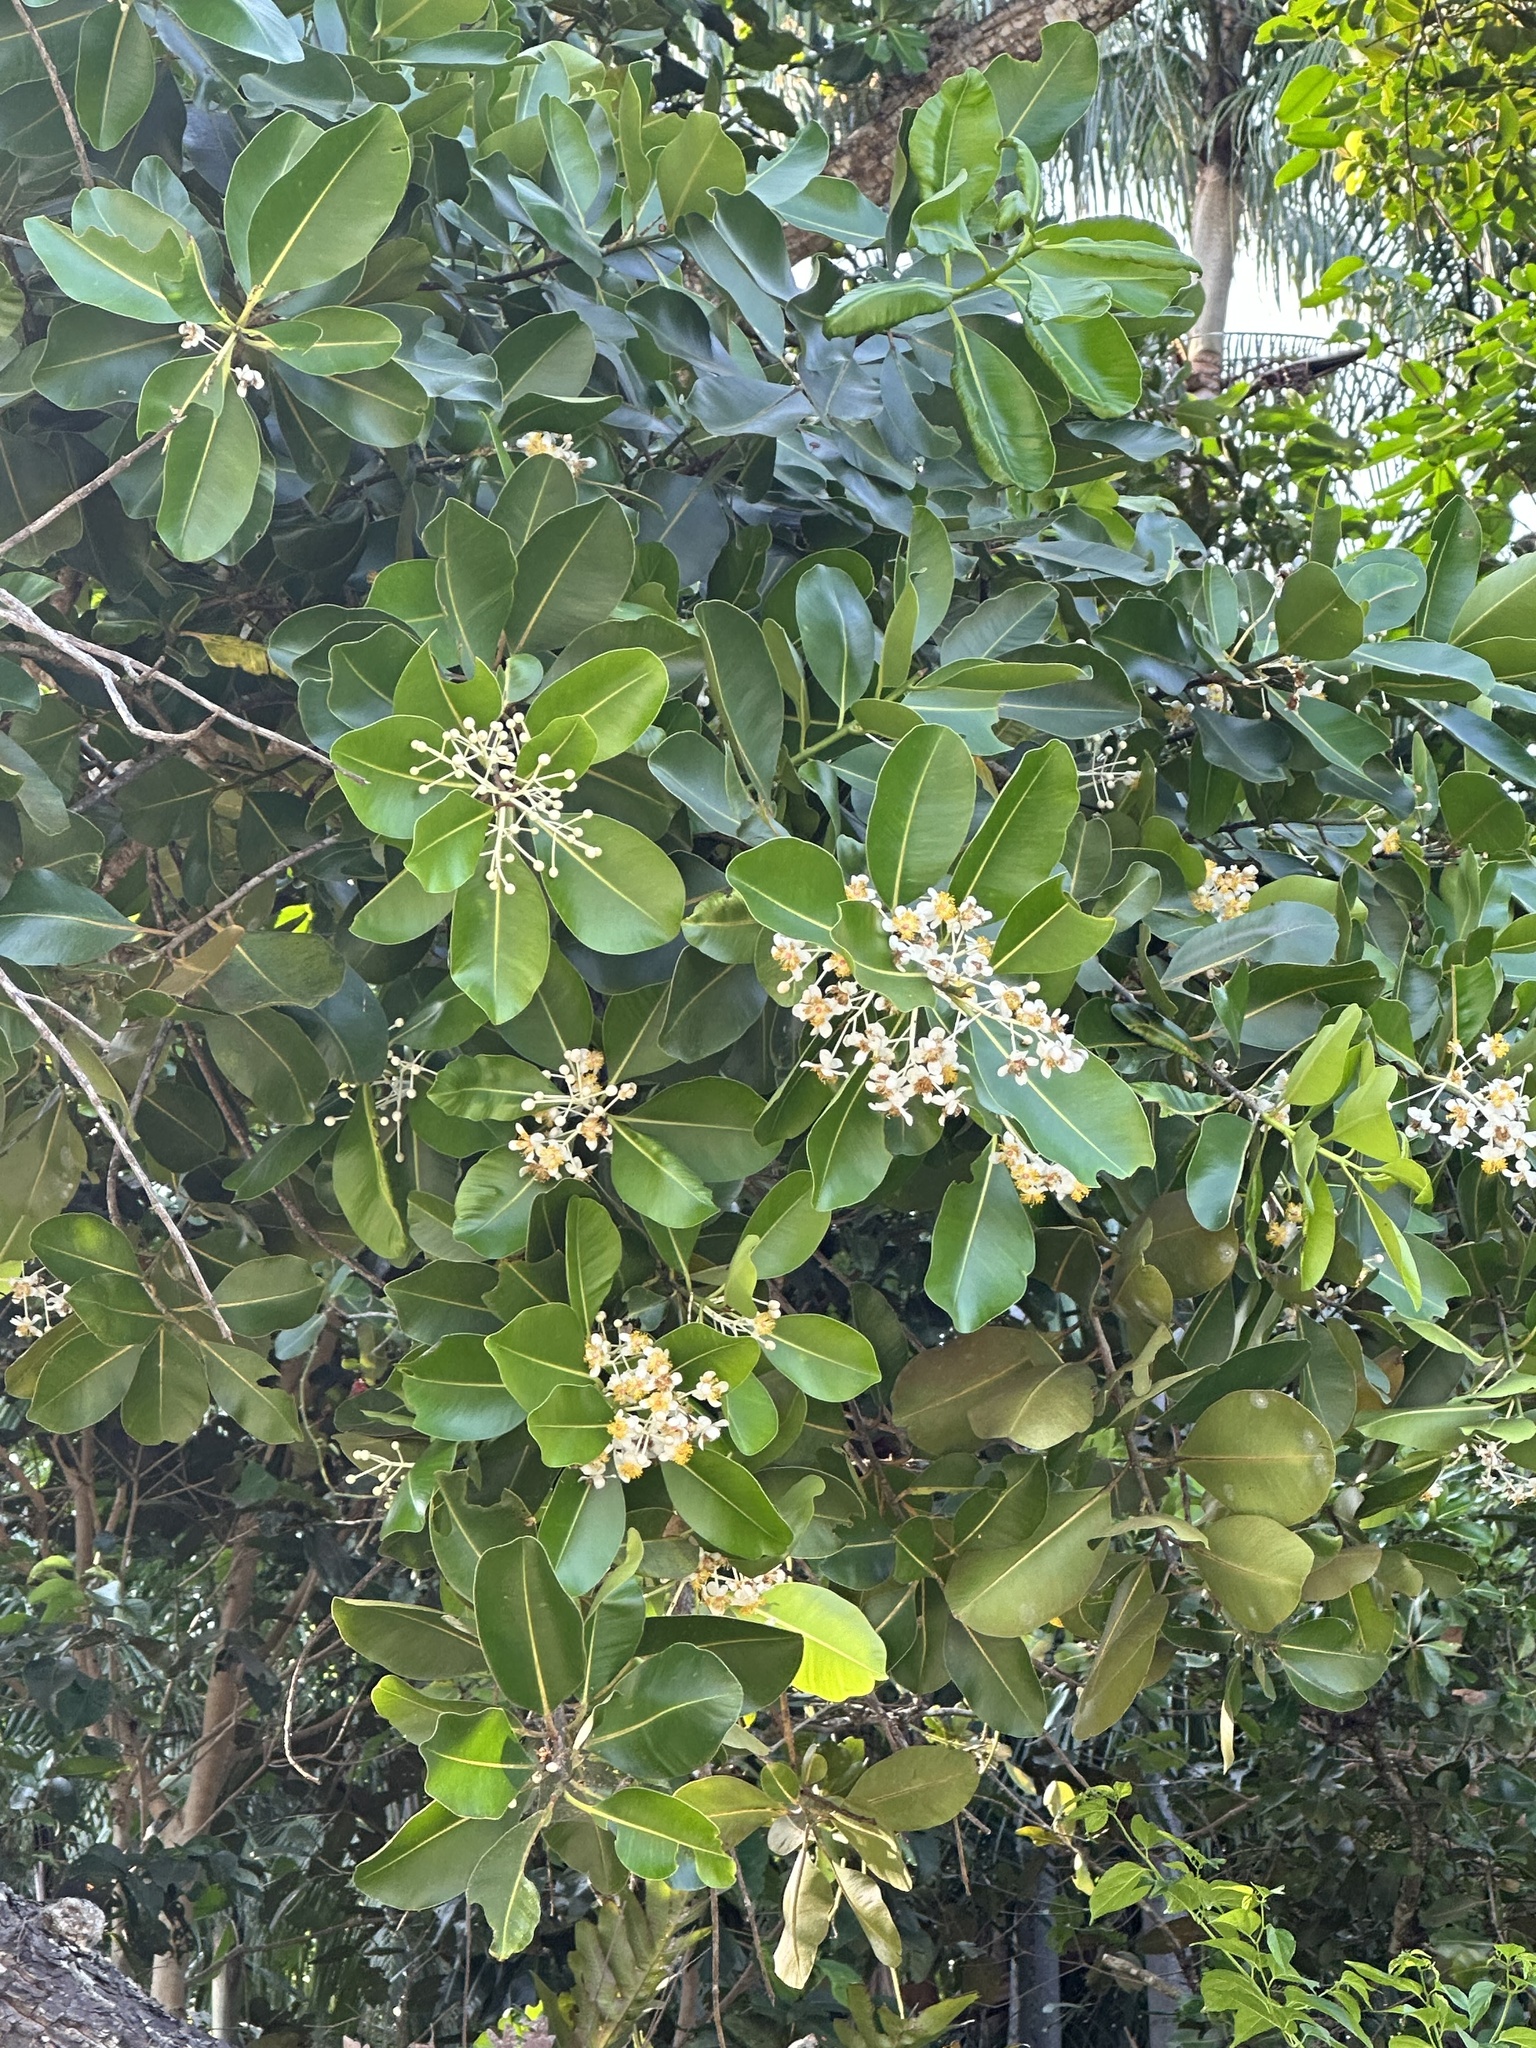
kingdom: Plantae
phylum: Tracheophyta
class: Magnoliopsida
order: Malpighiales
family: Calophyllaceae
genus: Calophyllum
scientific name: Calophyllum inophyllum
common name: Alexandrian laurel
